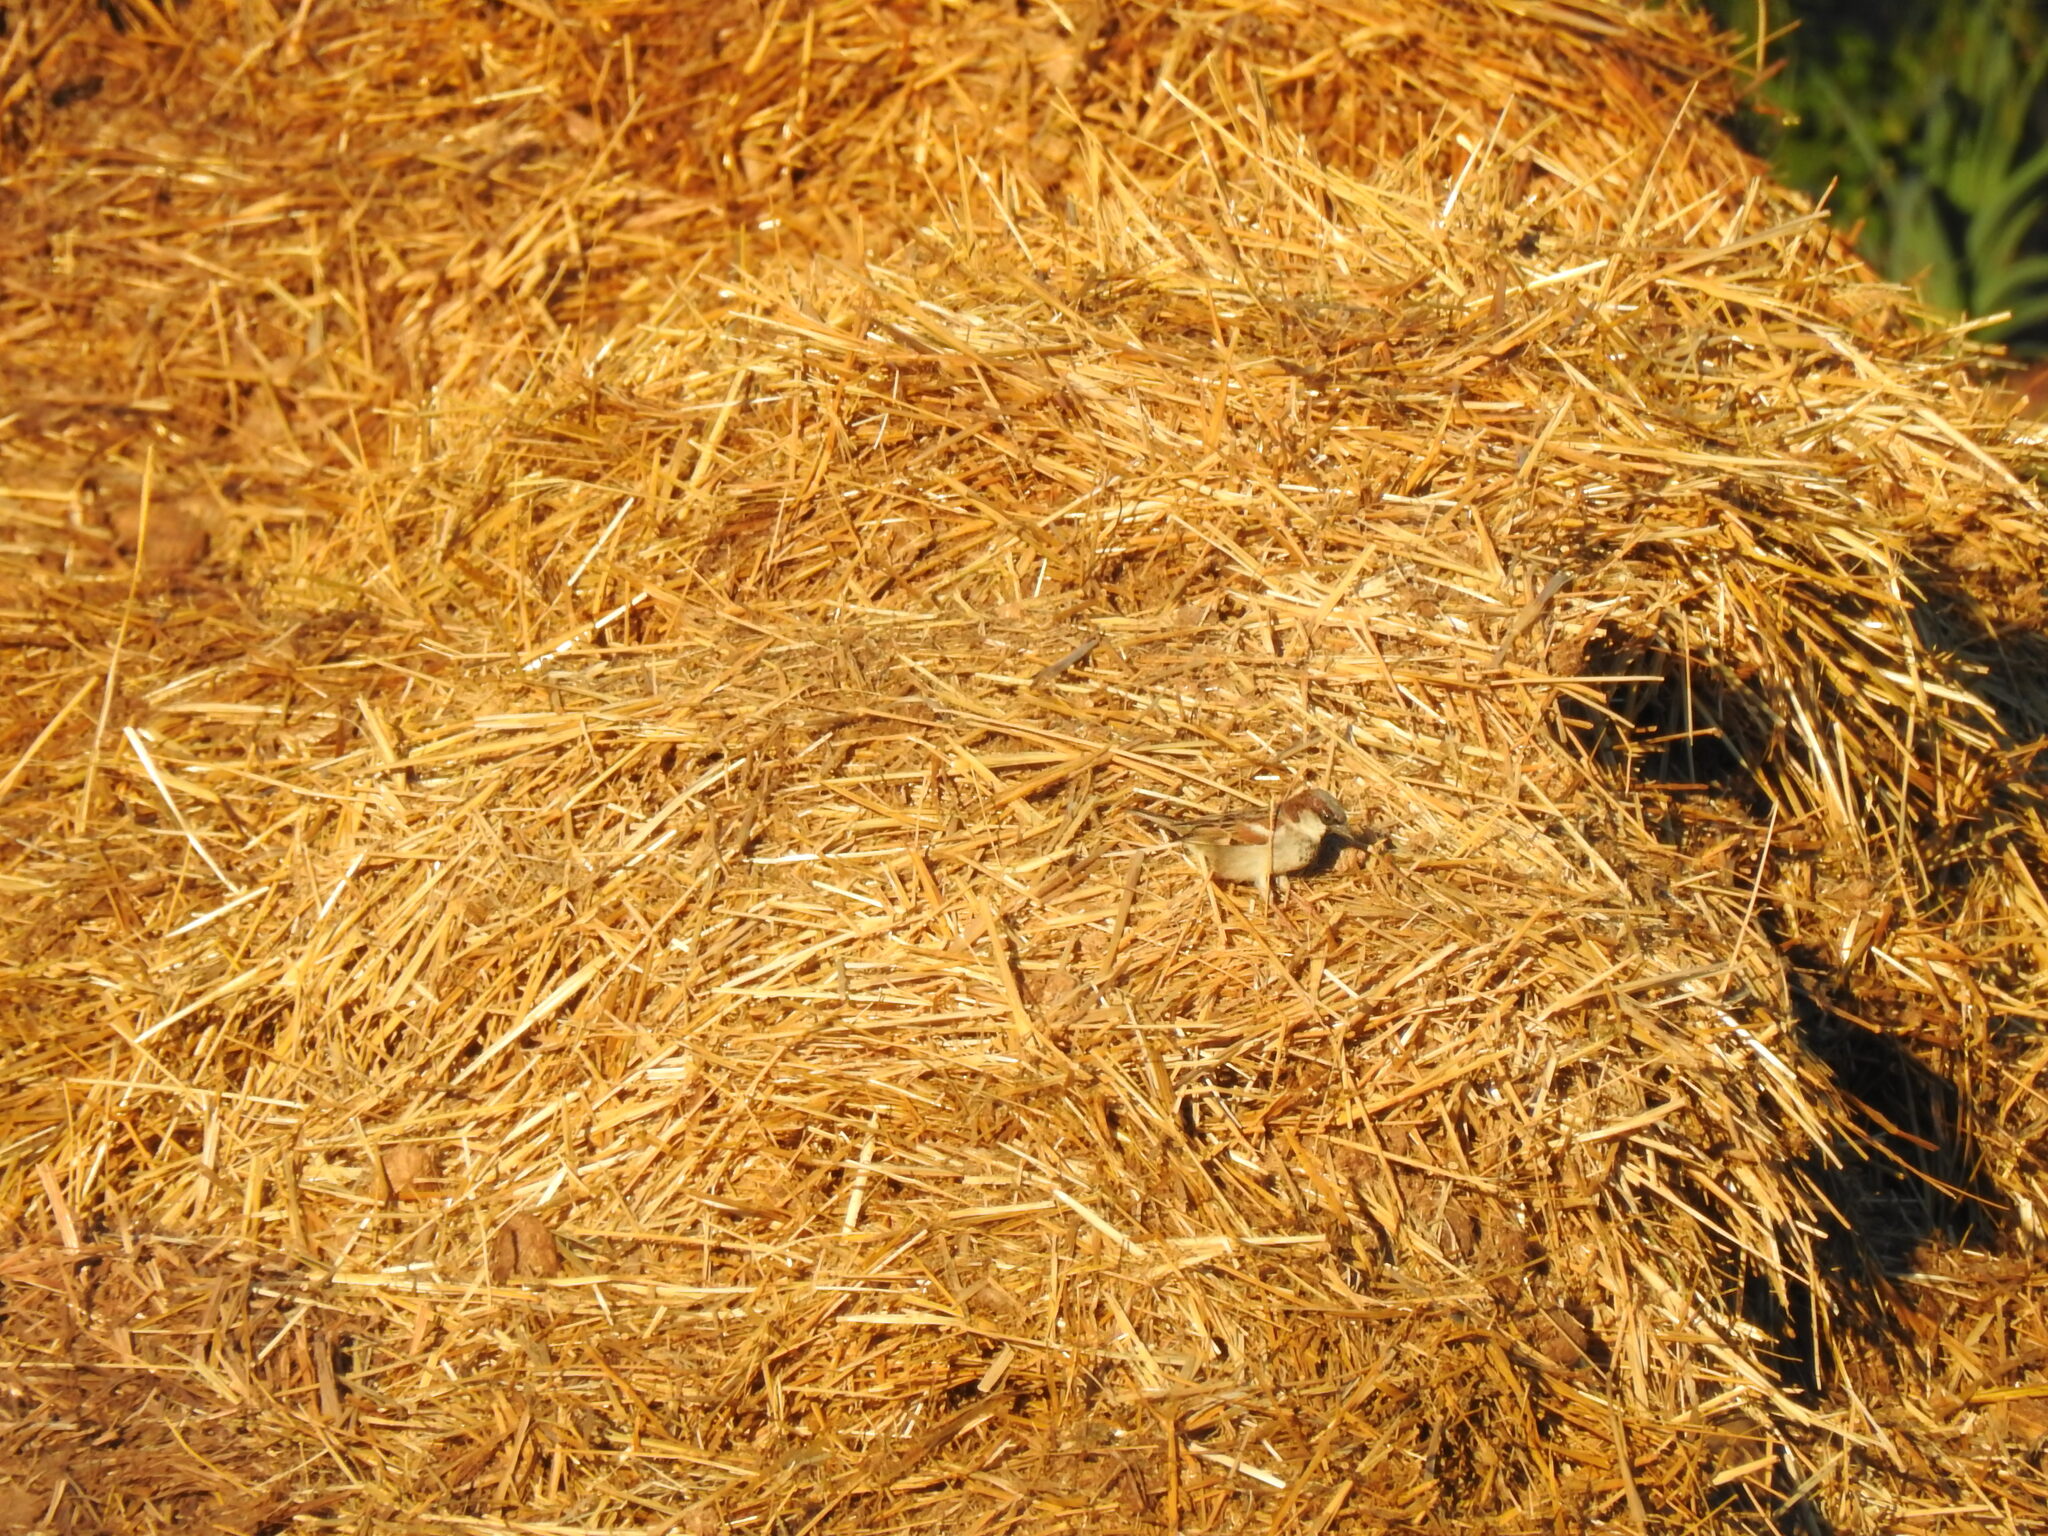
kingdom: Animalia
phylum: Chordata
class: Aves
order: Passeriformes
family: Passeridae
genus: Passer
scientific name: Passer domesticus
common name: House sparrow
